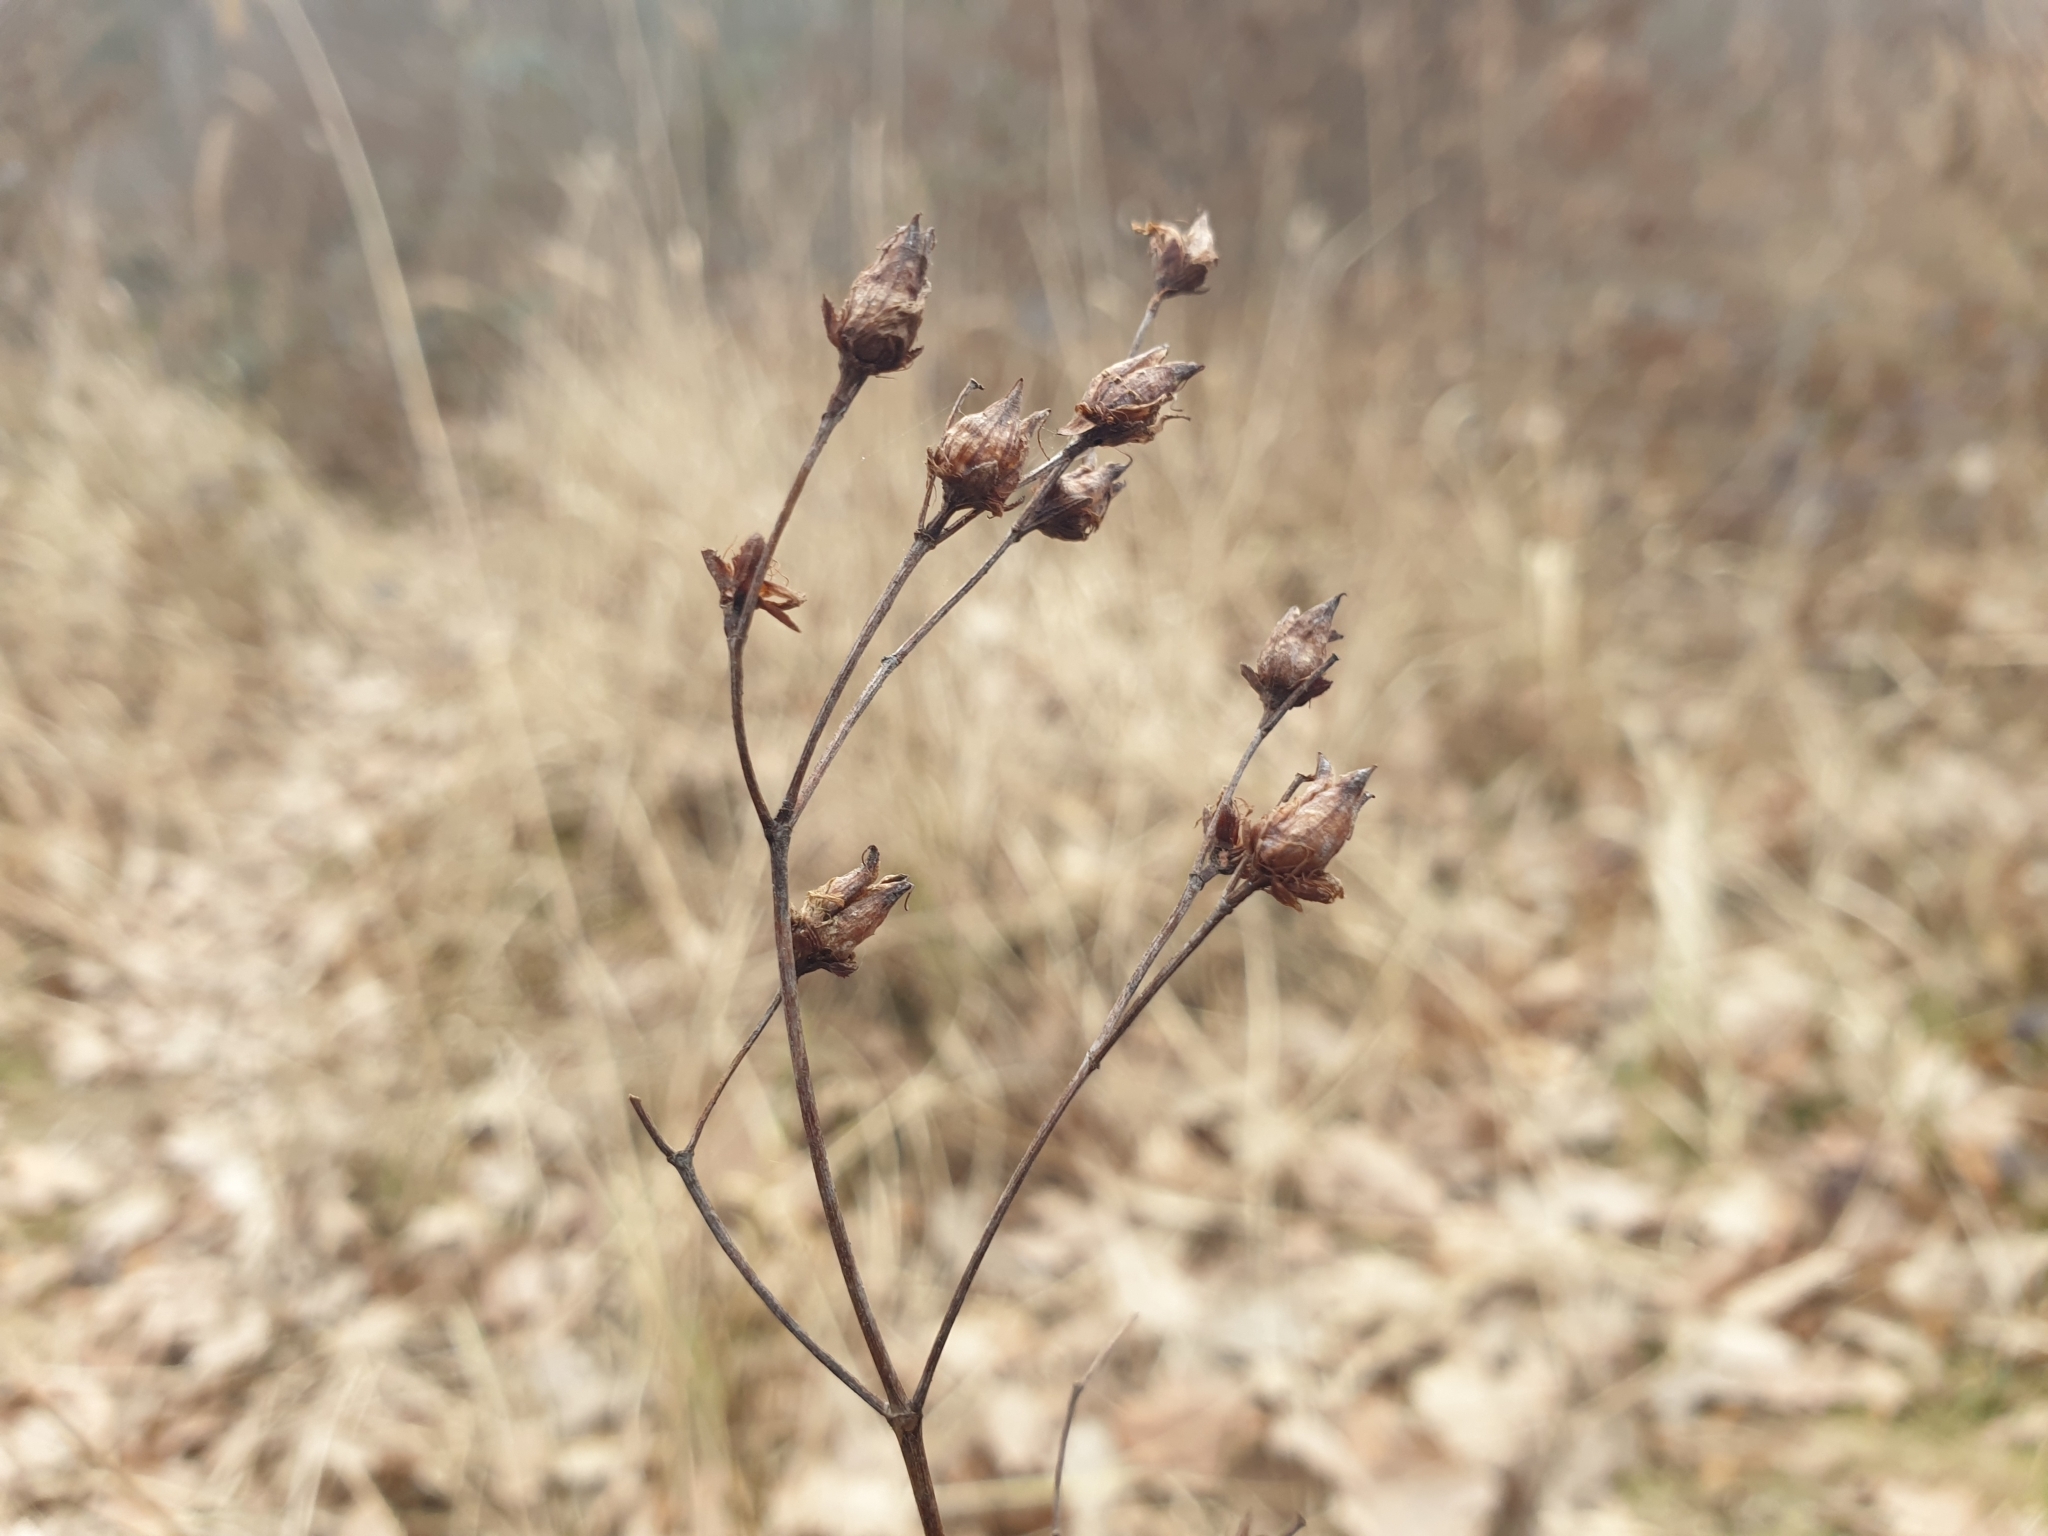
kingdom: Plantae
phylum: Tracheophyta
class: Magnoliopsida
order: Malpighiales
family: Hypericaceae
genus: Hypericum
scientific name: Hypericum pulchrum
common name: Slender st. john's-wort
